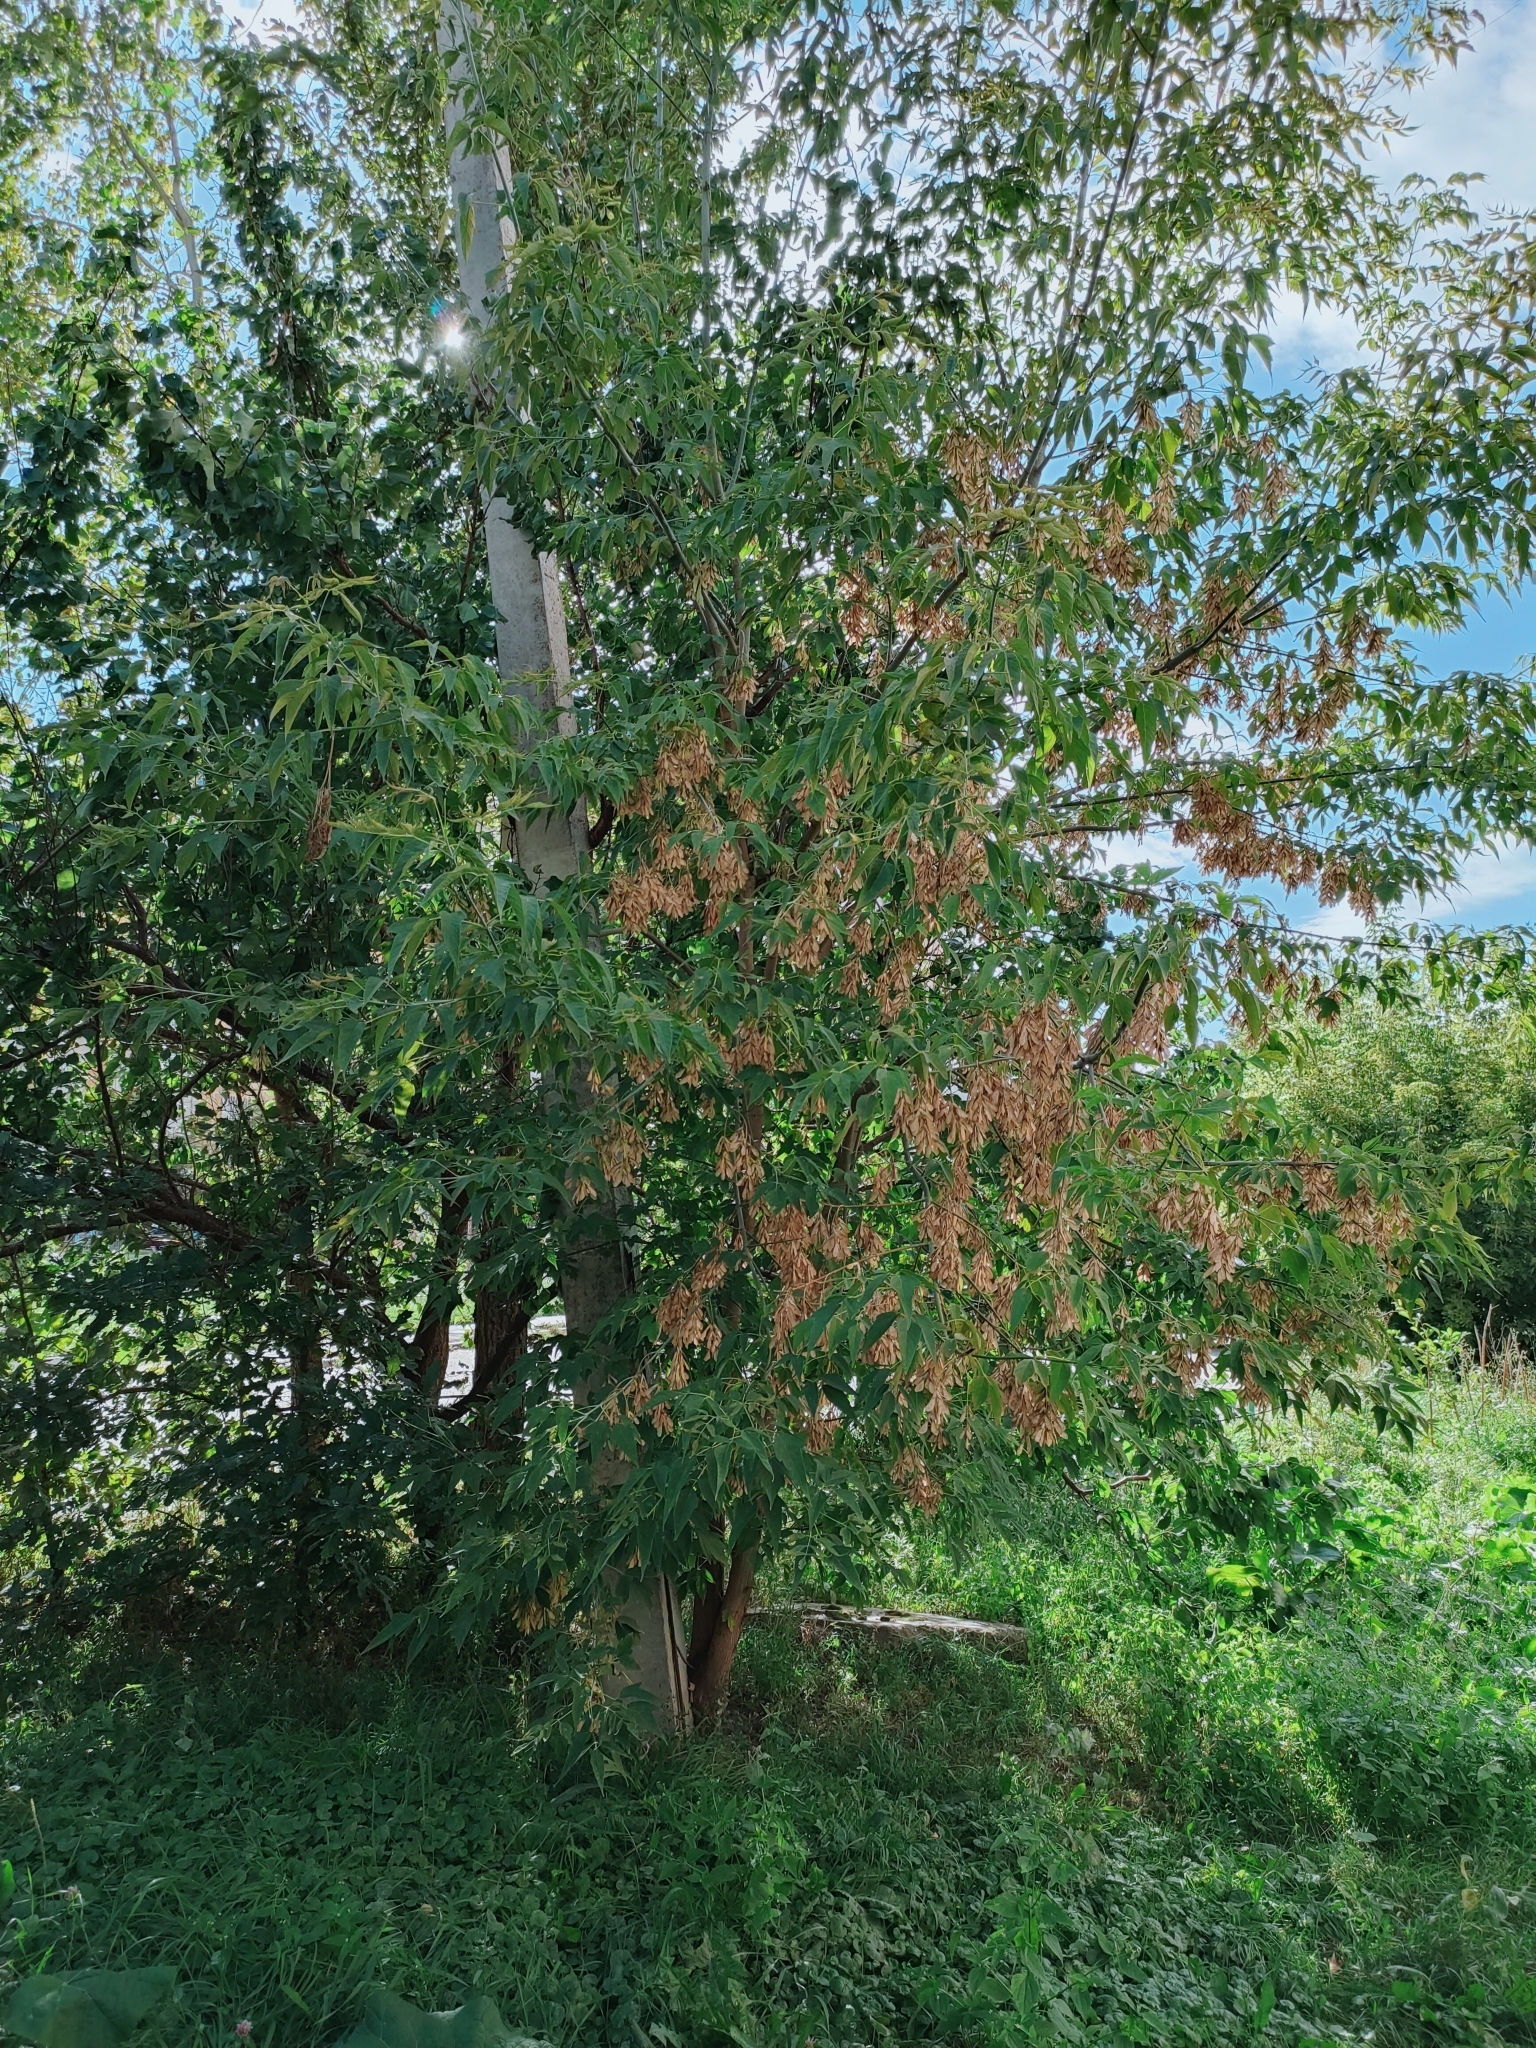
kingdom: Plantae
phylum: Tracheophyta
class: Magnoliopsida
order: Sapindales
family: Sapindaceae
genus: Acer
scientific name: Acer negundo
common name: Ashleaf maple
